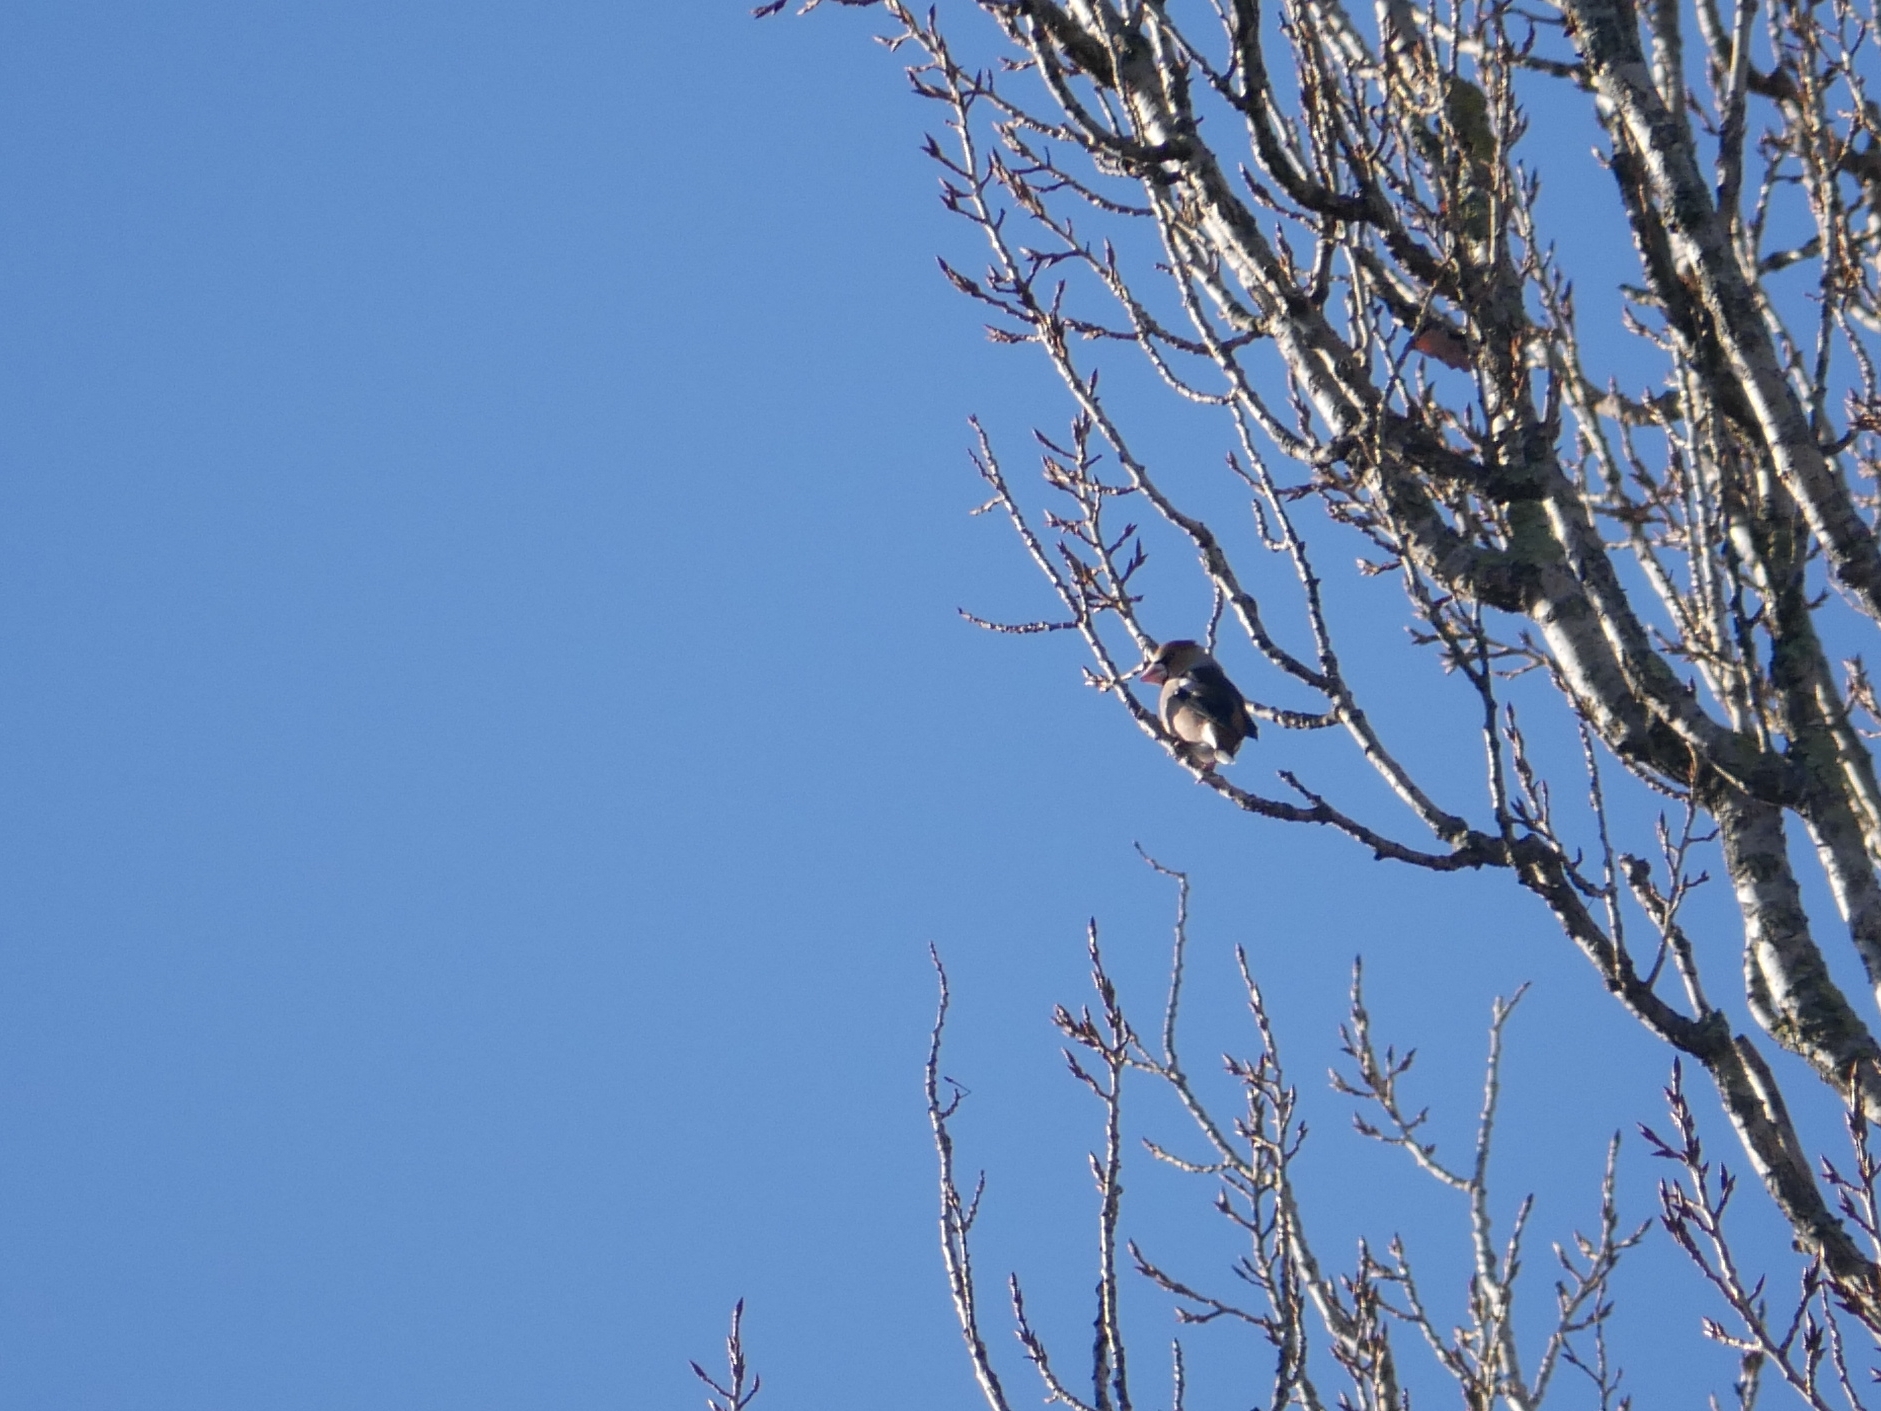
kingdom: Animalia
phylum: Chordata
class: Aves
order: Passeriformes
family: Fringillidae
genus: Coccothraustes
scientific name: Coccothraustes coccothraustes
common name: Hawfinch
